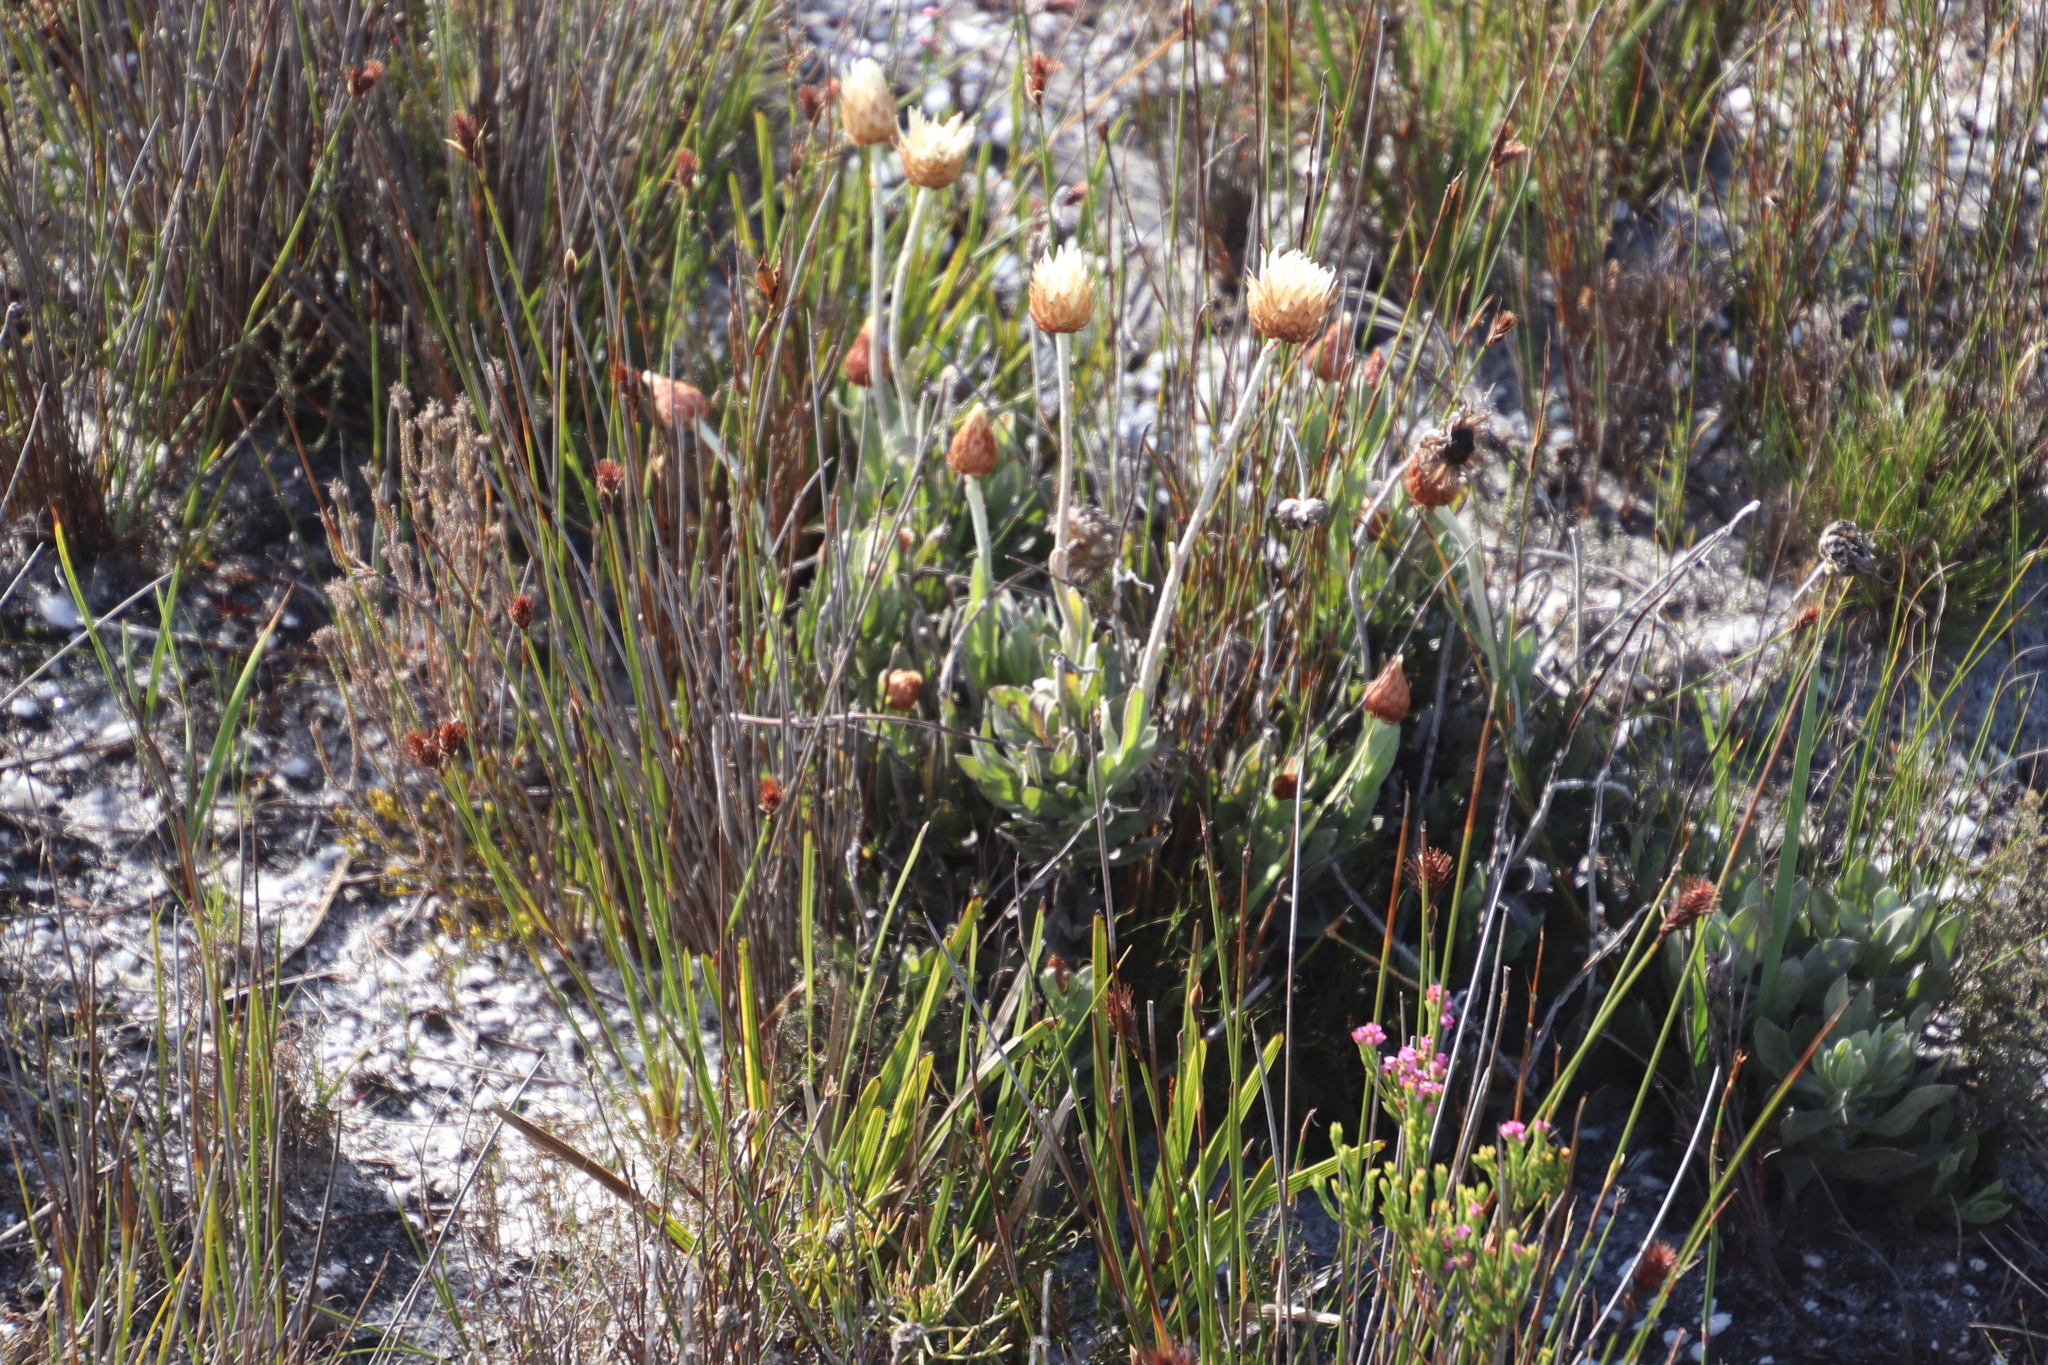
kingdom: Plantae
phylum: Tracheophyta
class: Magnoliopsida
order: Asterales
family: Asteraceae
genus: Syncarpha
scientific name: Syncarpha speciosissima
